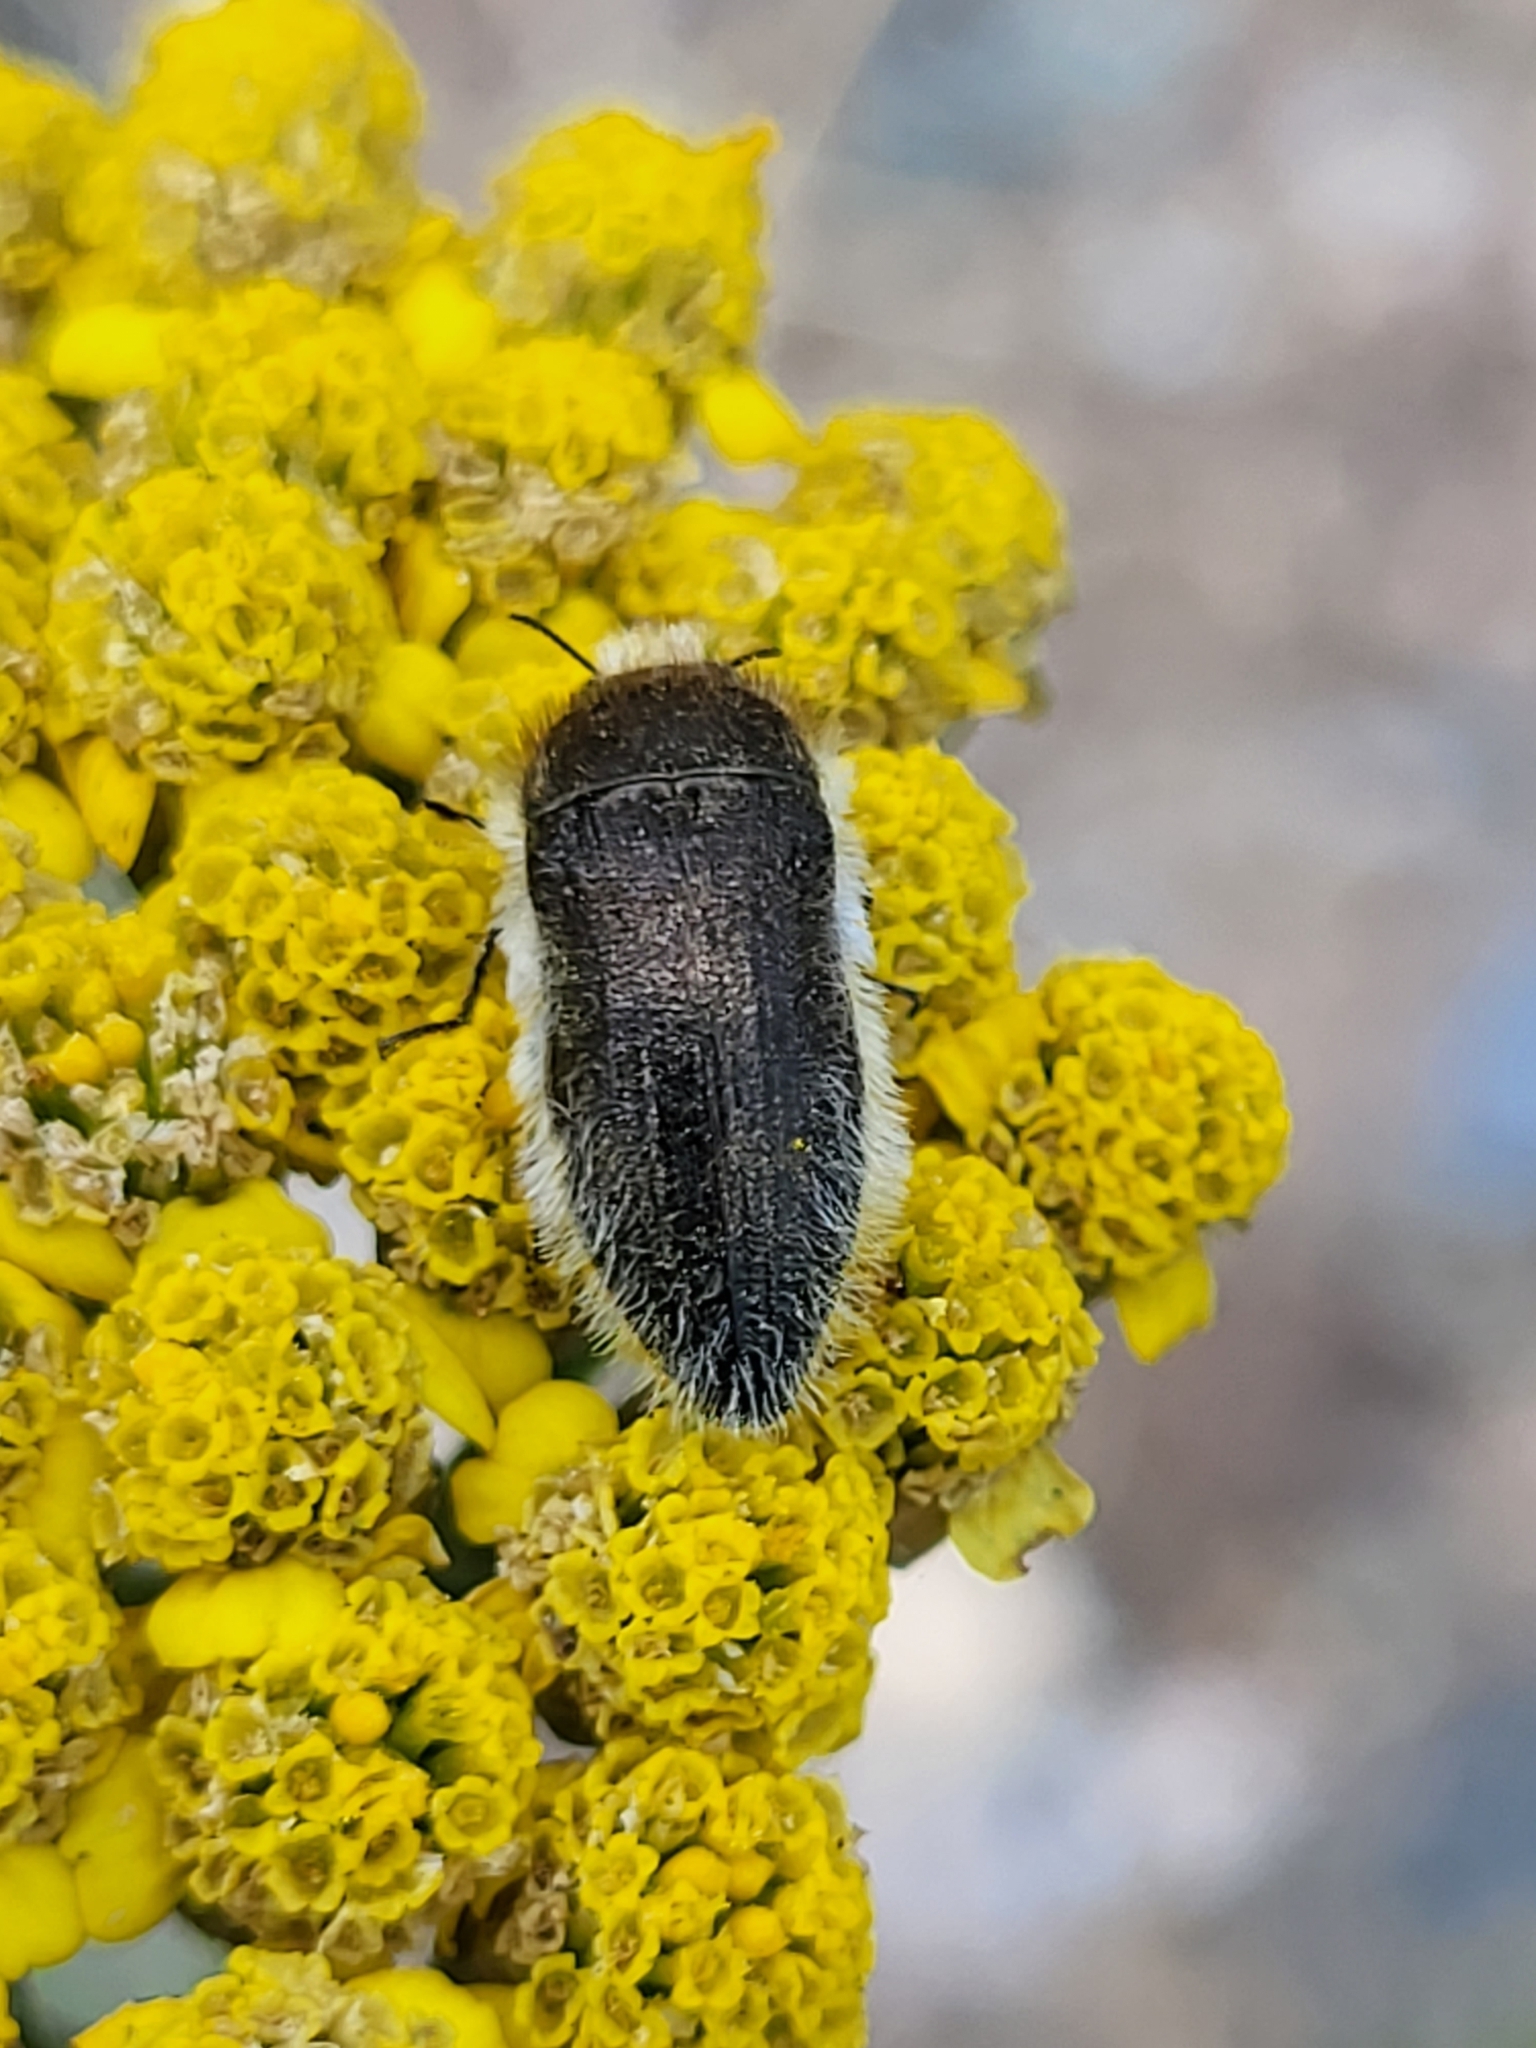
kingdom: Animalia
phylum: Arthropoda
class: Insecta
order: Coleoptera
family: Buprestidae
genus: Acmaeoderella
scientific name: Acmaeoderella vetusta
